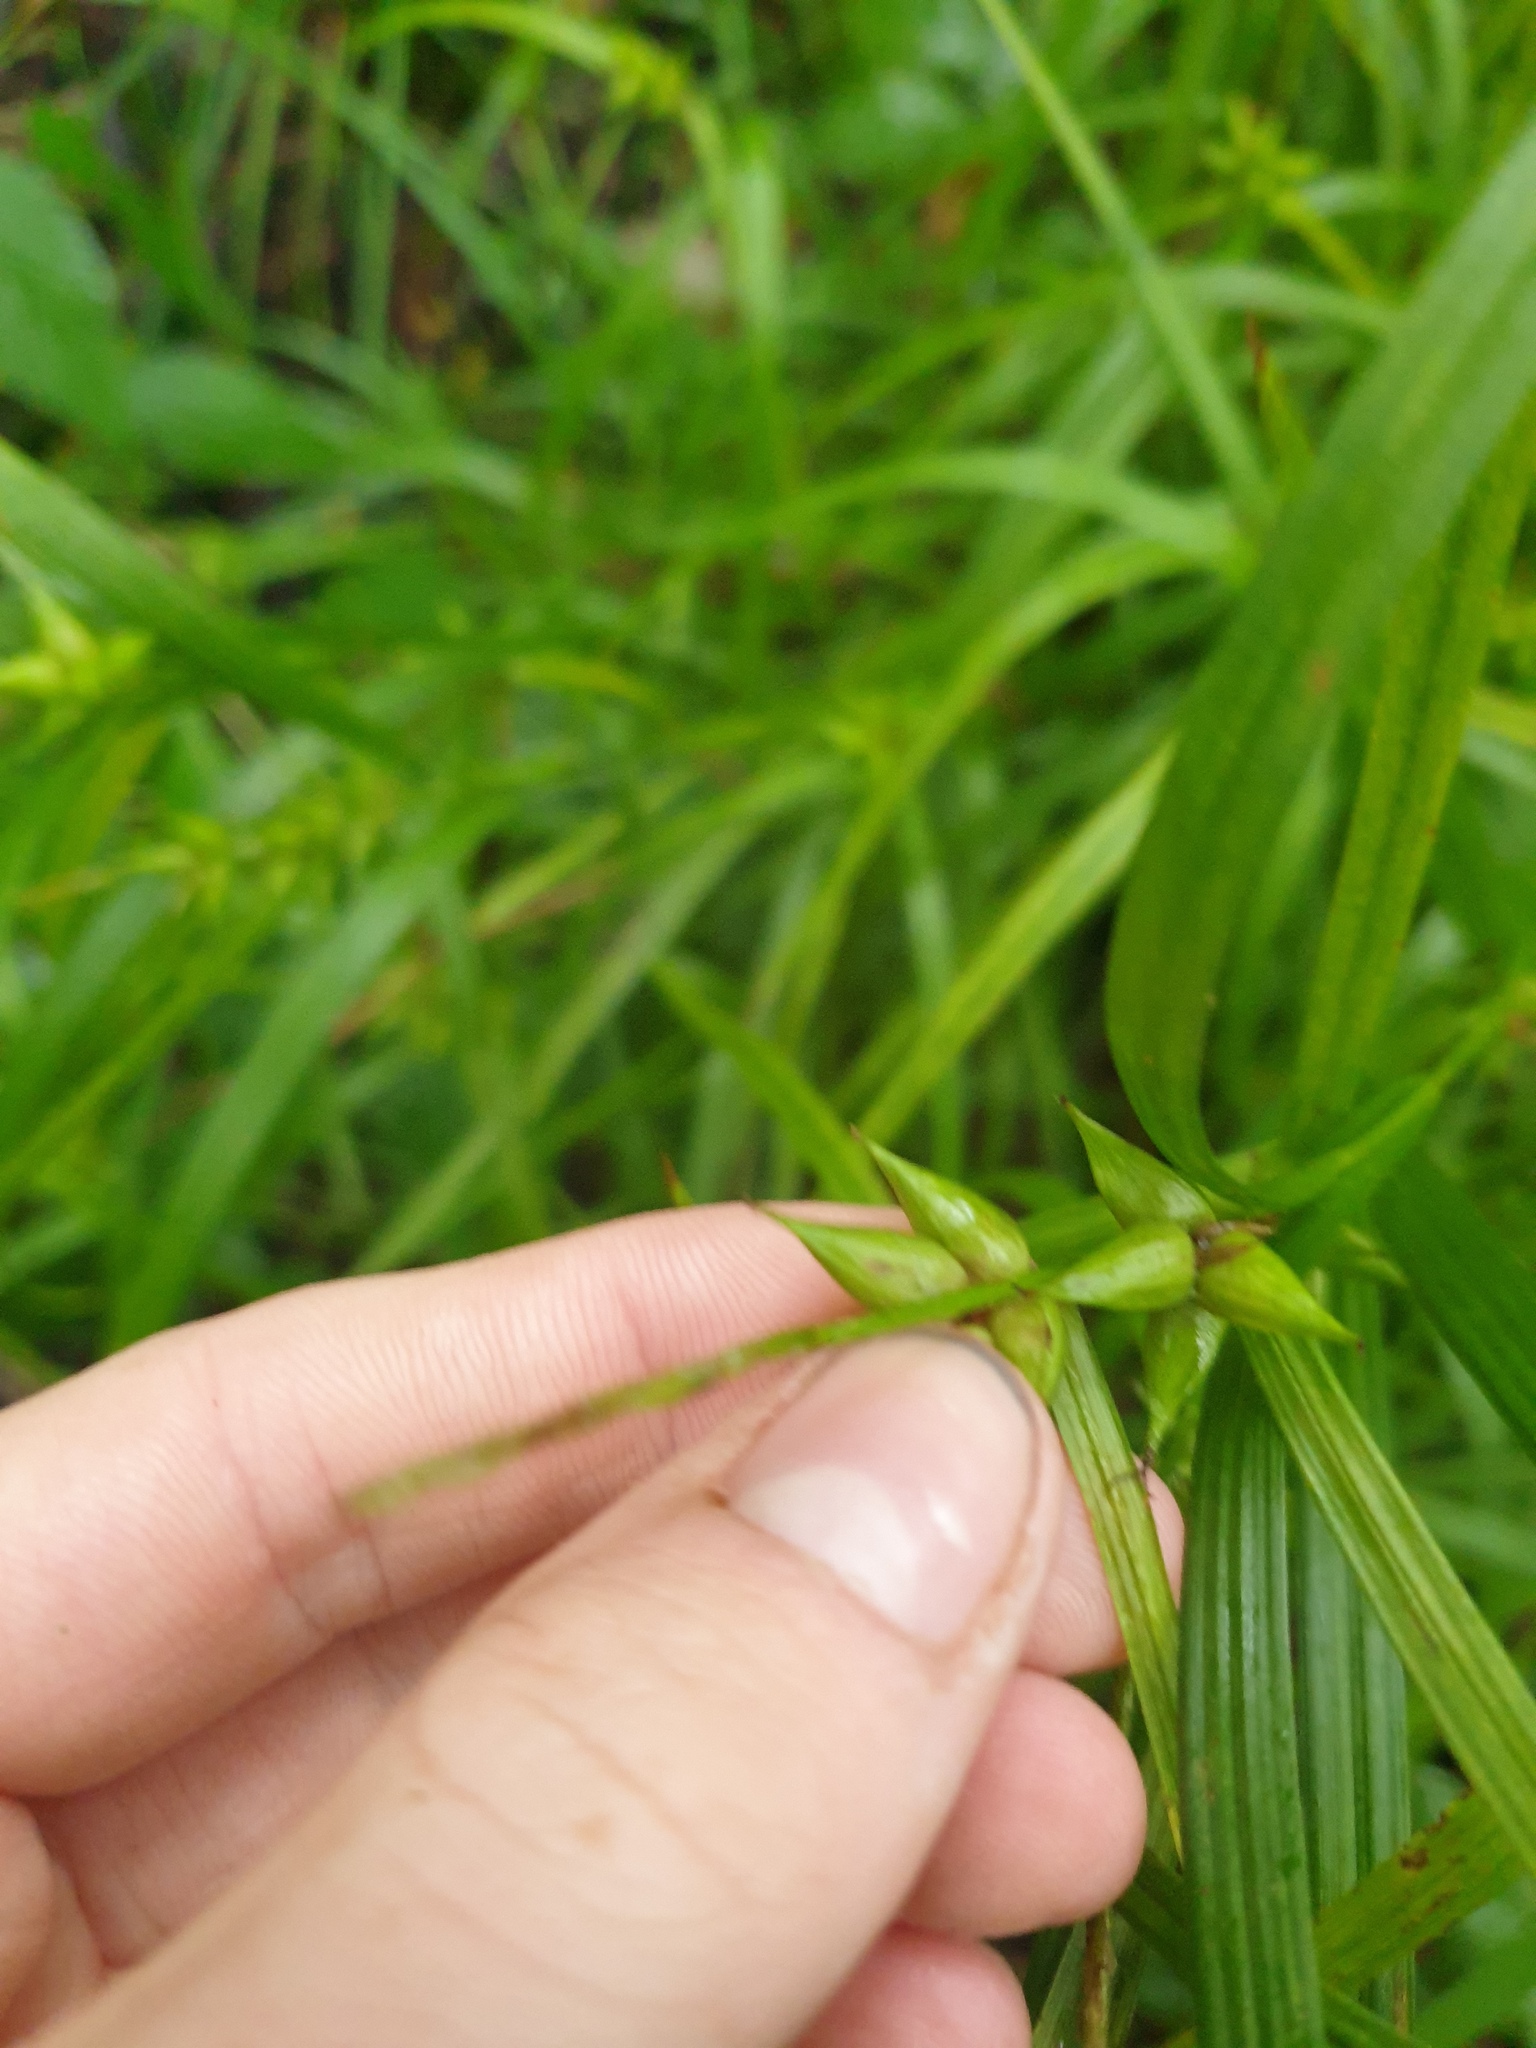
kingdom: Plantae
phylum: Tracheophyta
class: Liliopsida
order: Poales
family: Cyperaceae
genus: Carex
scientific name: Carex intumescens
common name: Greater bladder sedge
